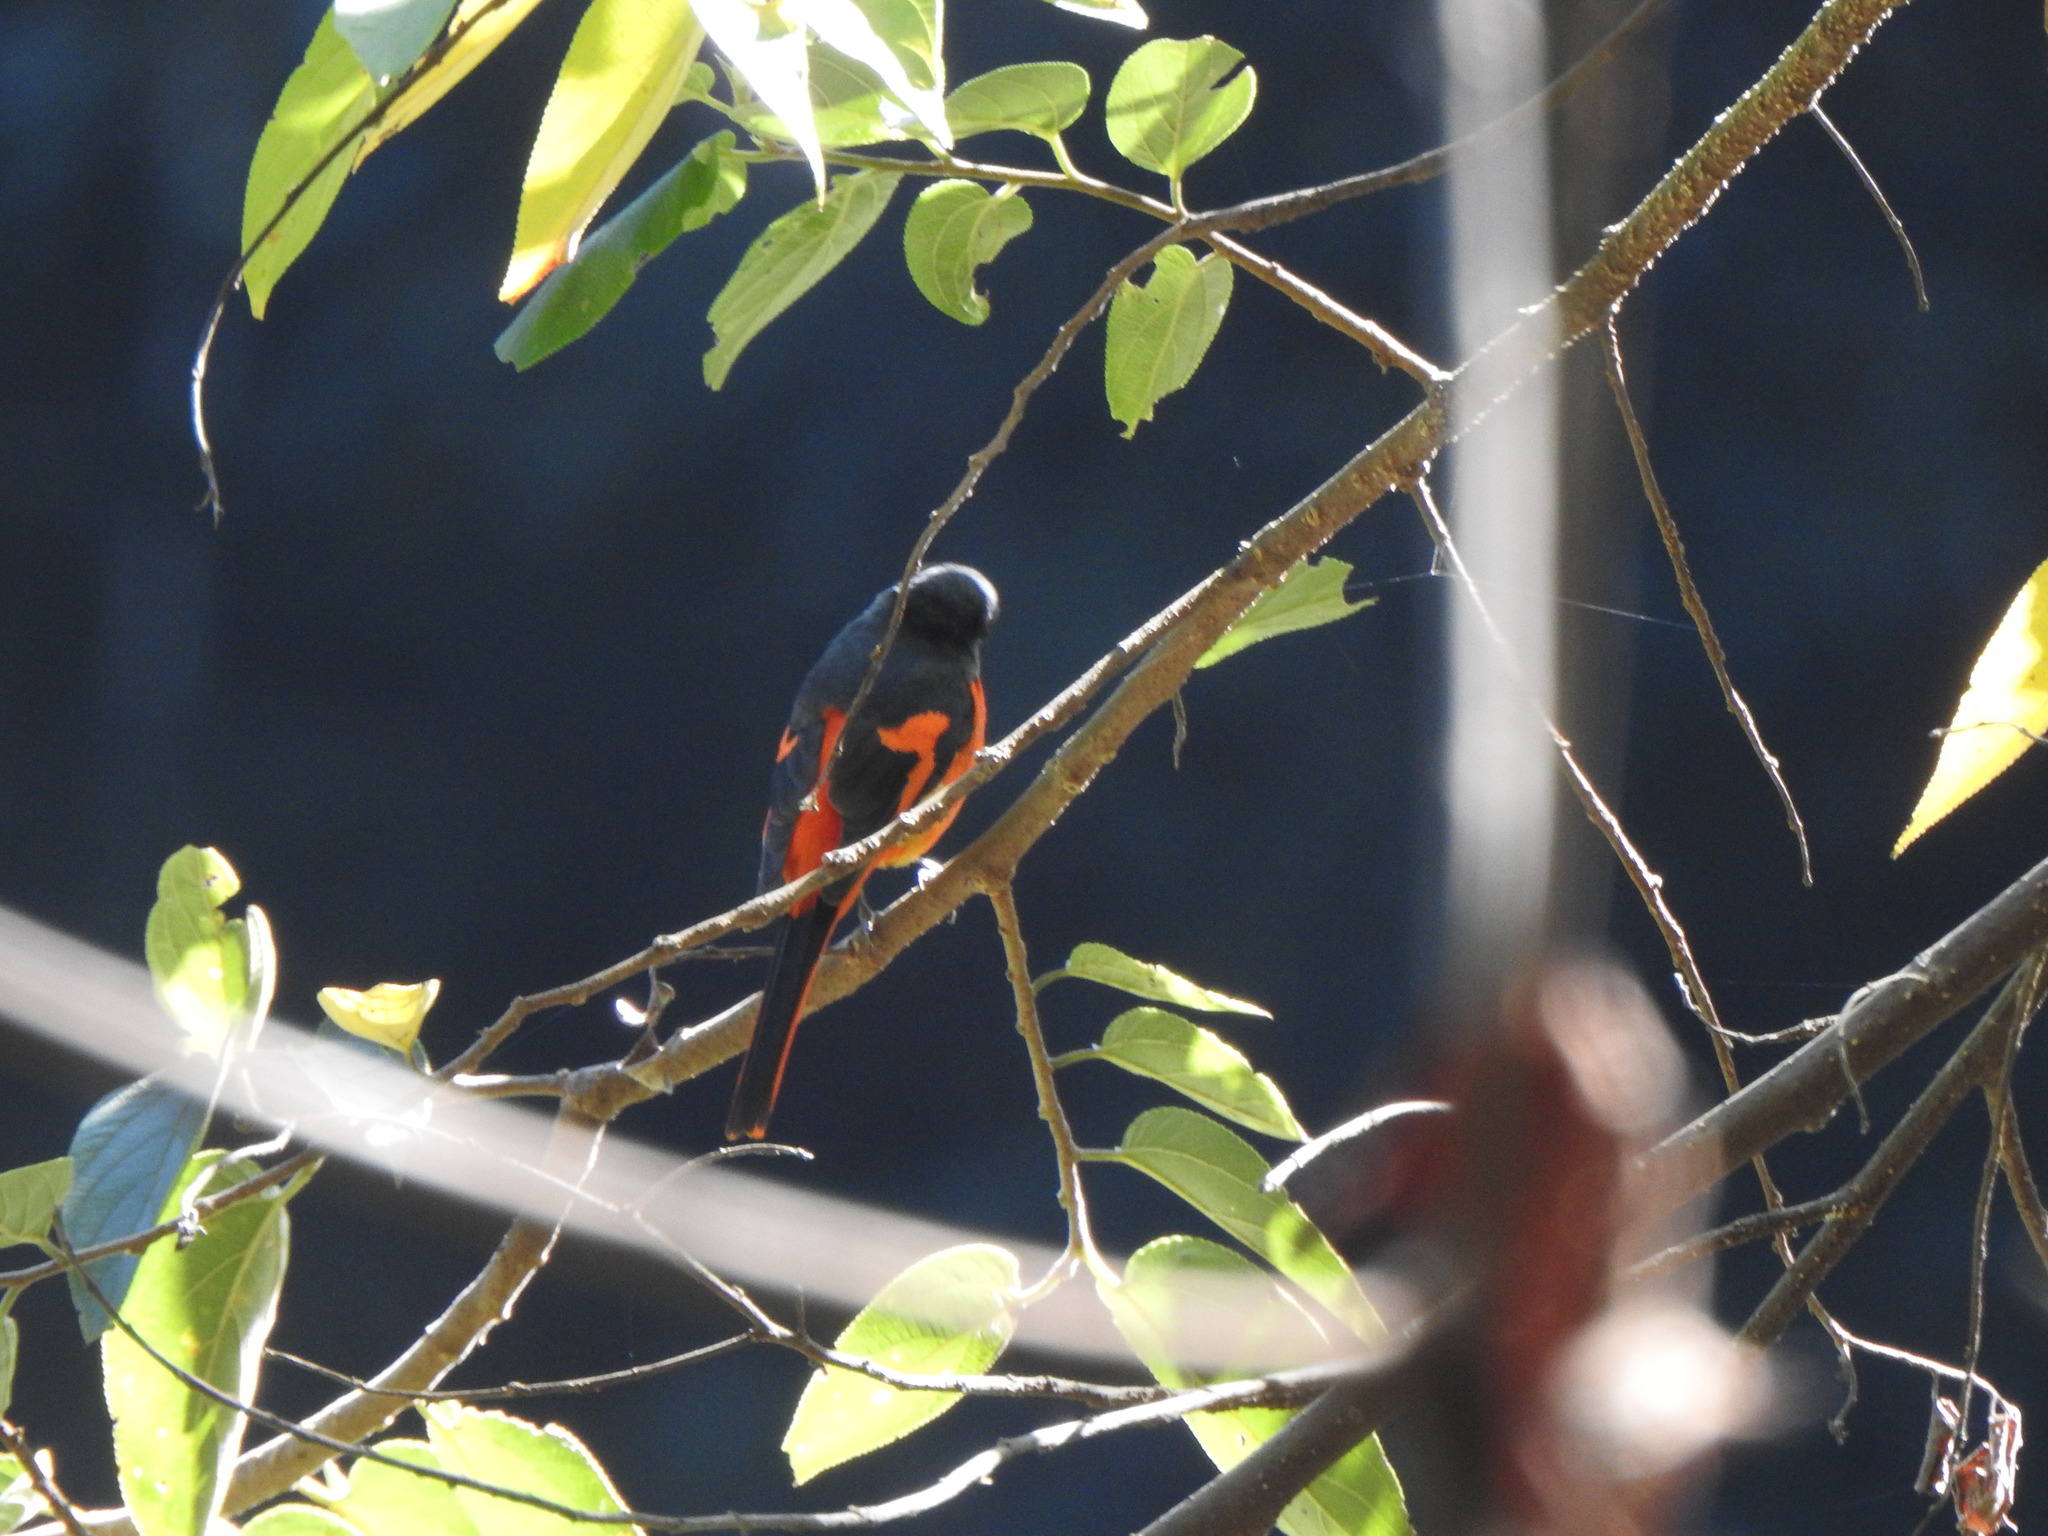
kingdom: Animalia
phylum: Chordata
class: Aves
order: Passeriformes
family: Campephagidae
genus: Pericrocotus
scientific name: Pericrocotus solaris
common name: Grey-chinned minivet
